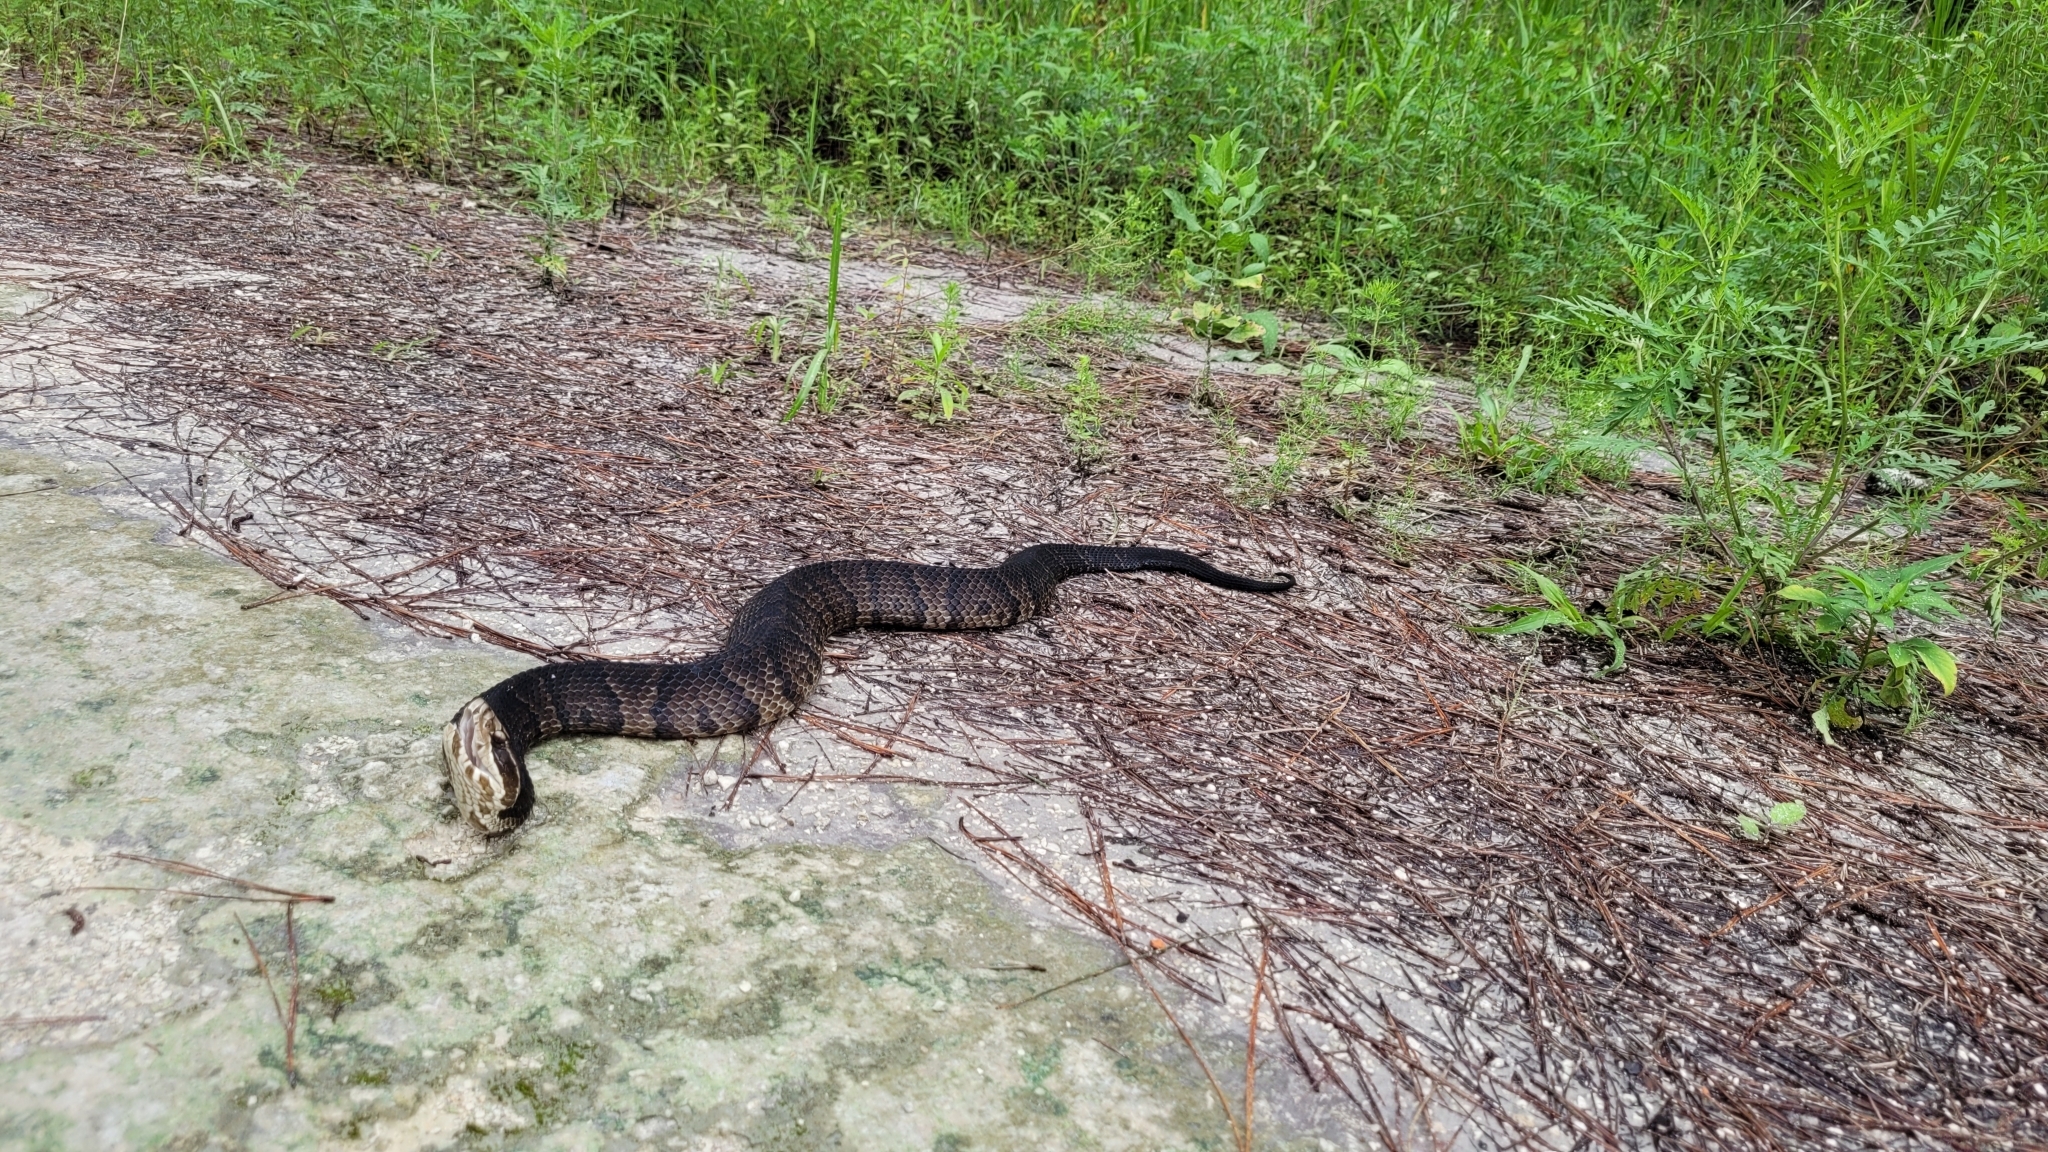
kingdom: Animalia
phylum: Chordata
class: Squamata
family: Viperidae
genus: Agkistrodon
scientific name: Agkistrodon conanti
